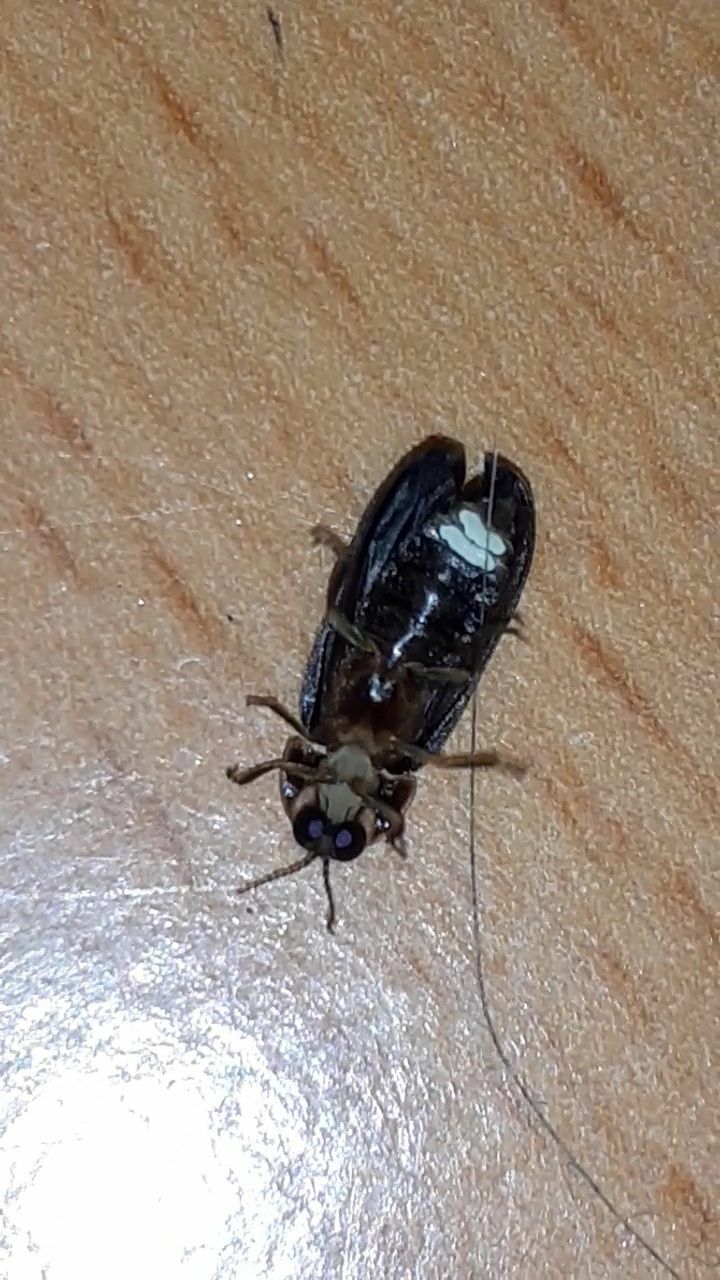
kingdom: Animalia
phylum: Arthropoda
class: Insecta
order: Coleoptera
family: Lampyridae
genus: Lamprohiza
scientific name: Lamprohiza splendidula
